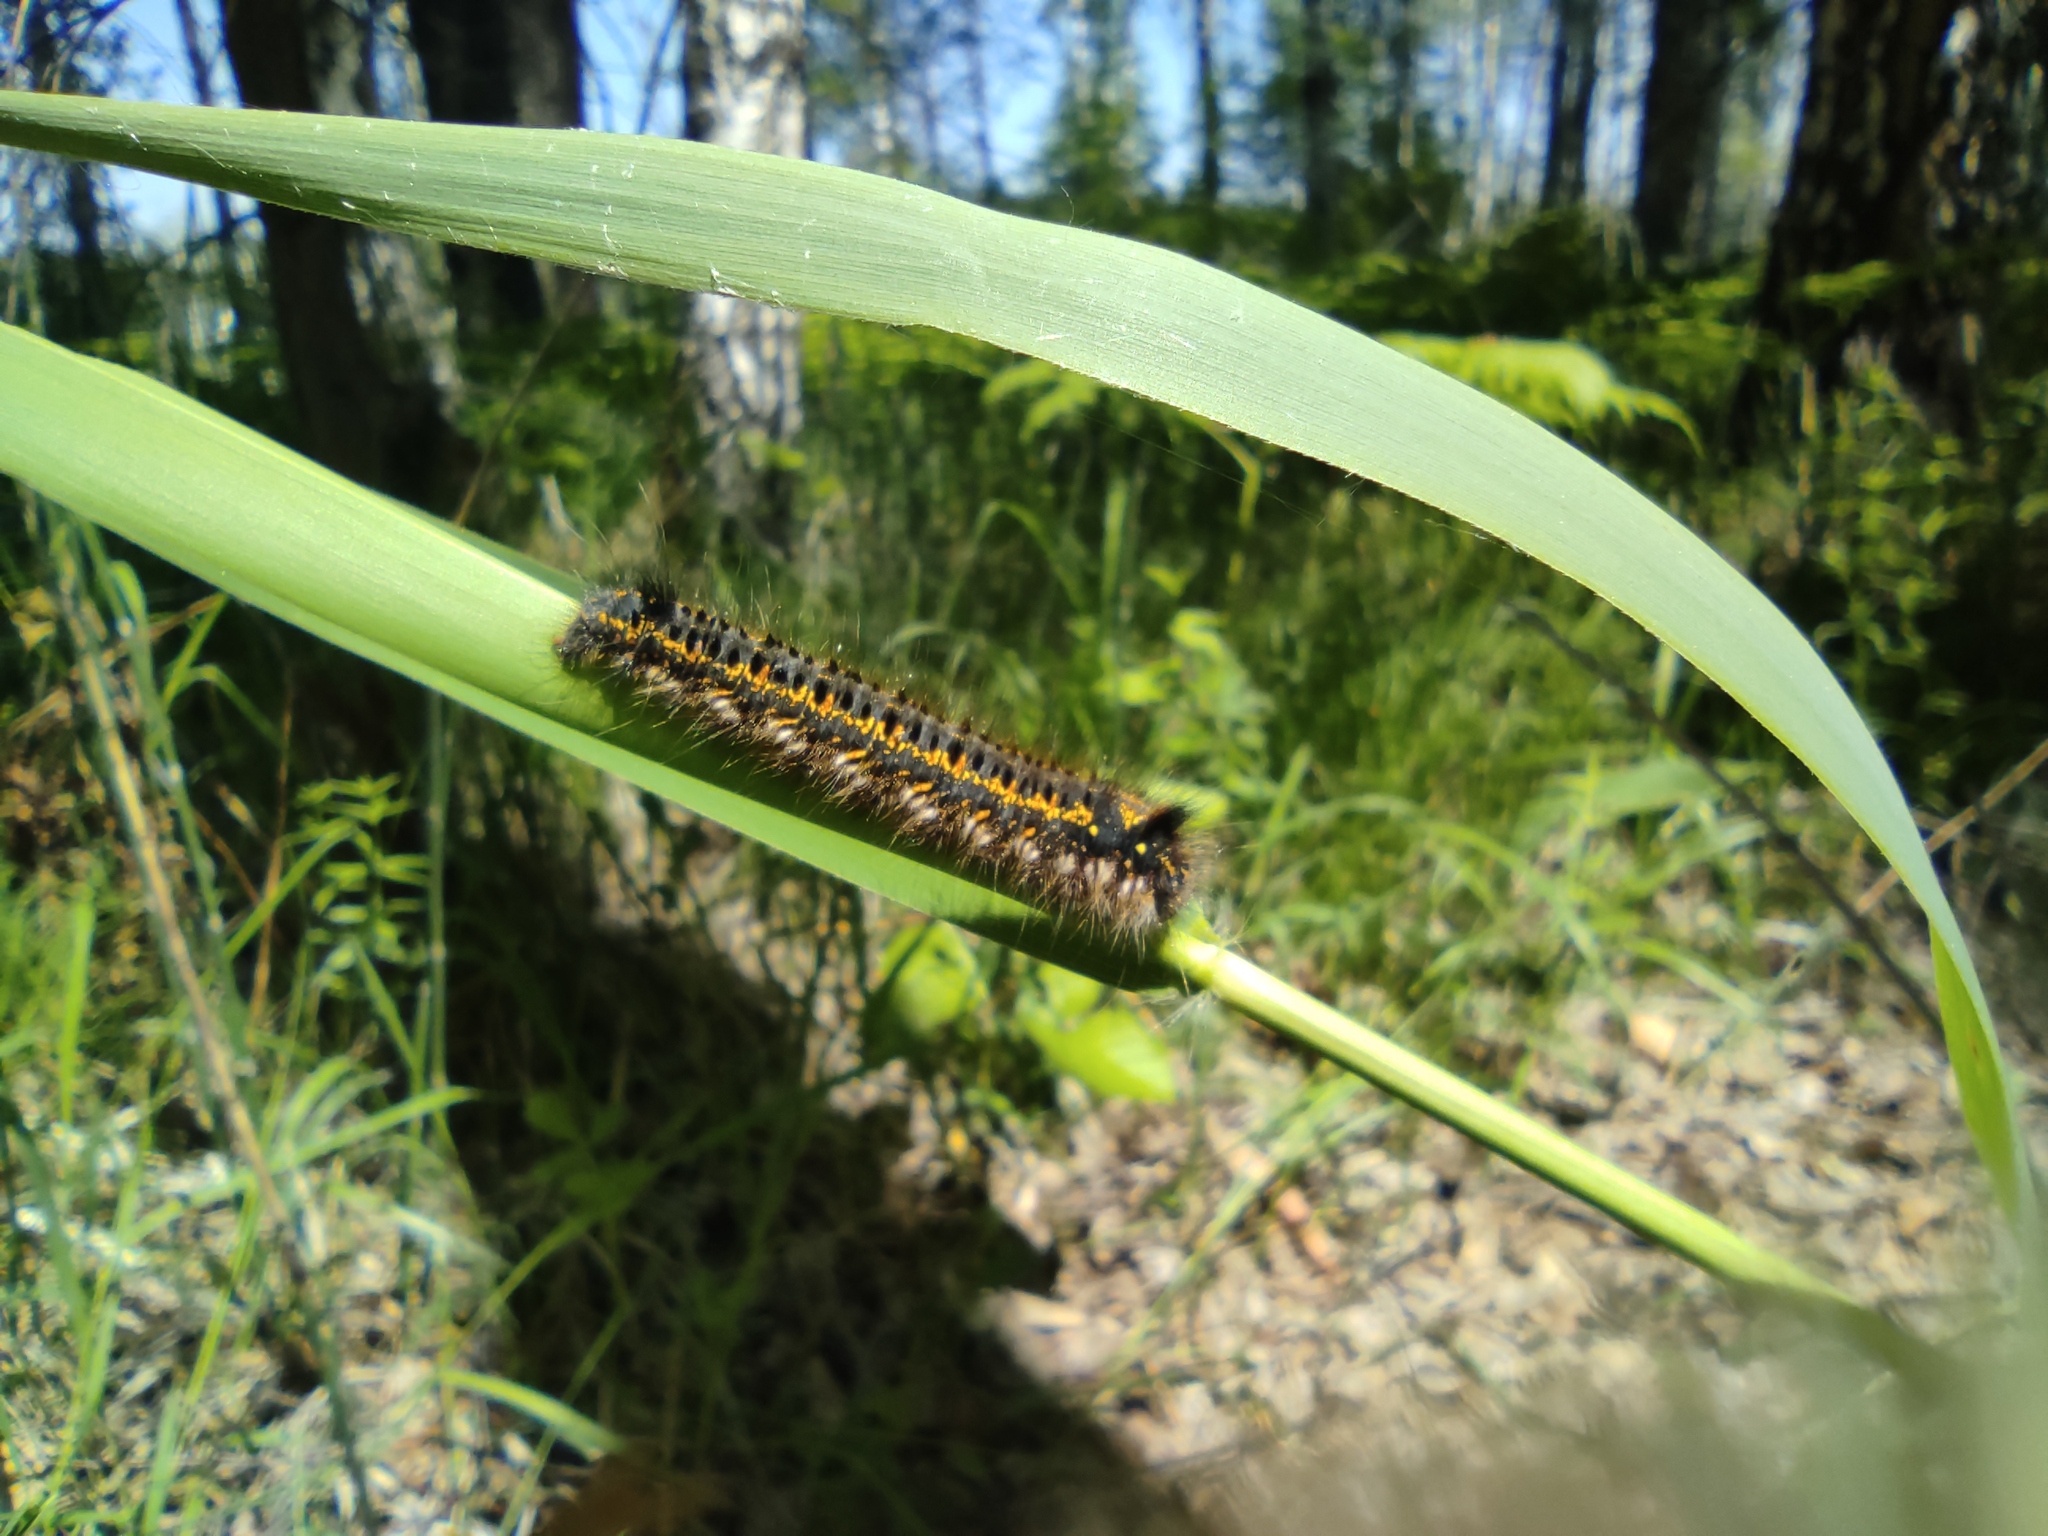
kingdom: Animalia
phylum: Arthropoda
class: Insecta
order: Lepidoptera
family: Lasiocampidae
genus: Euthrix
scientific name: Euthrix potatoria
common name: Drinker
